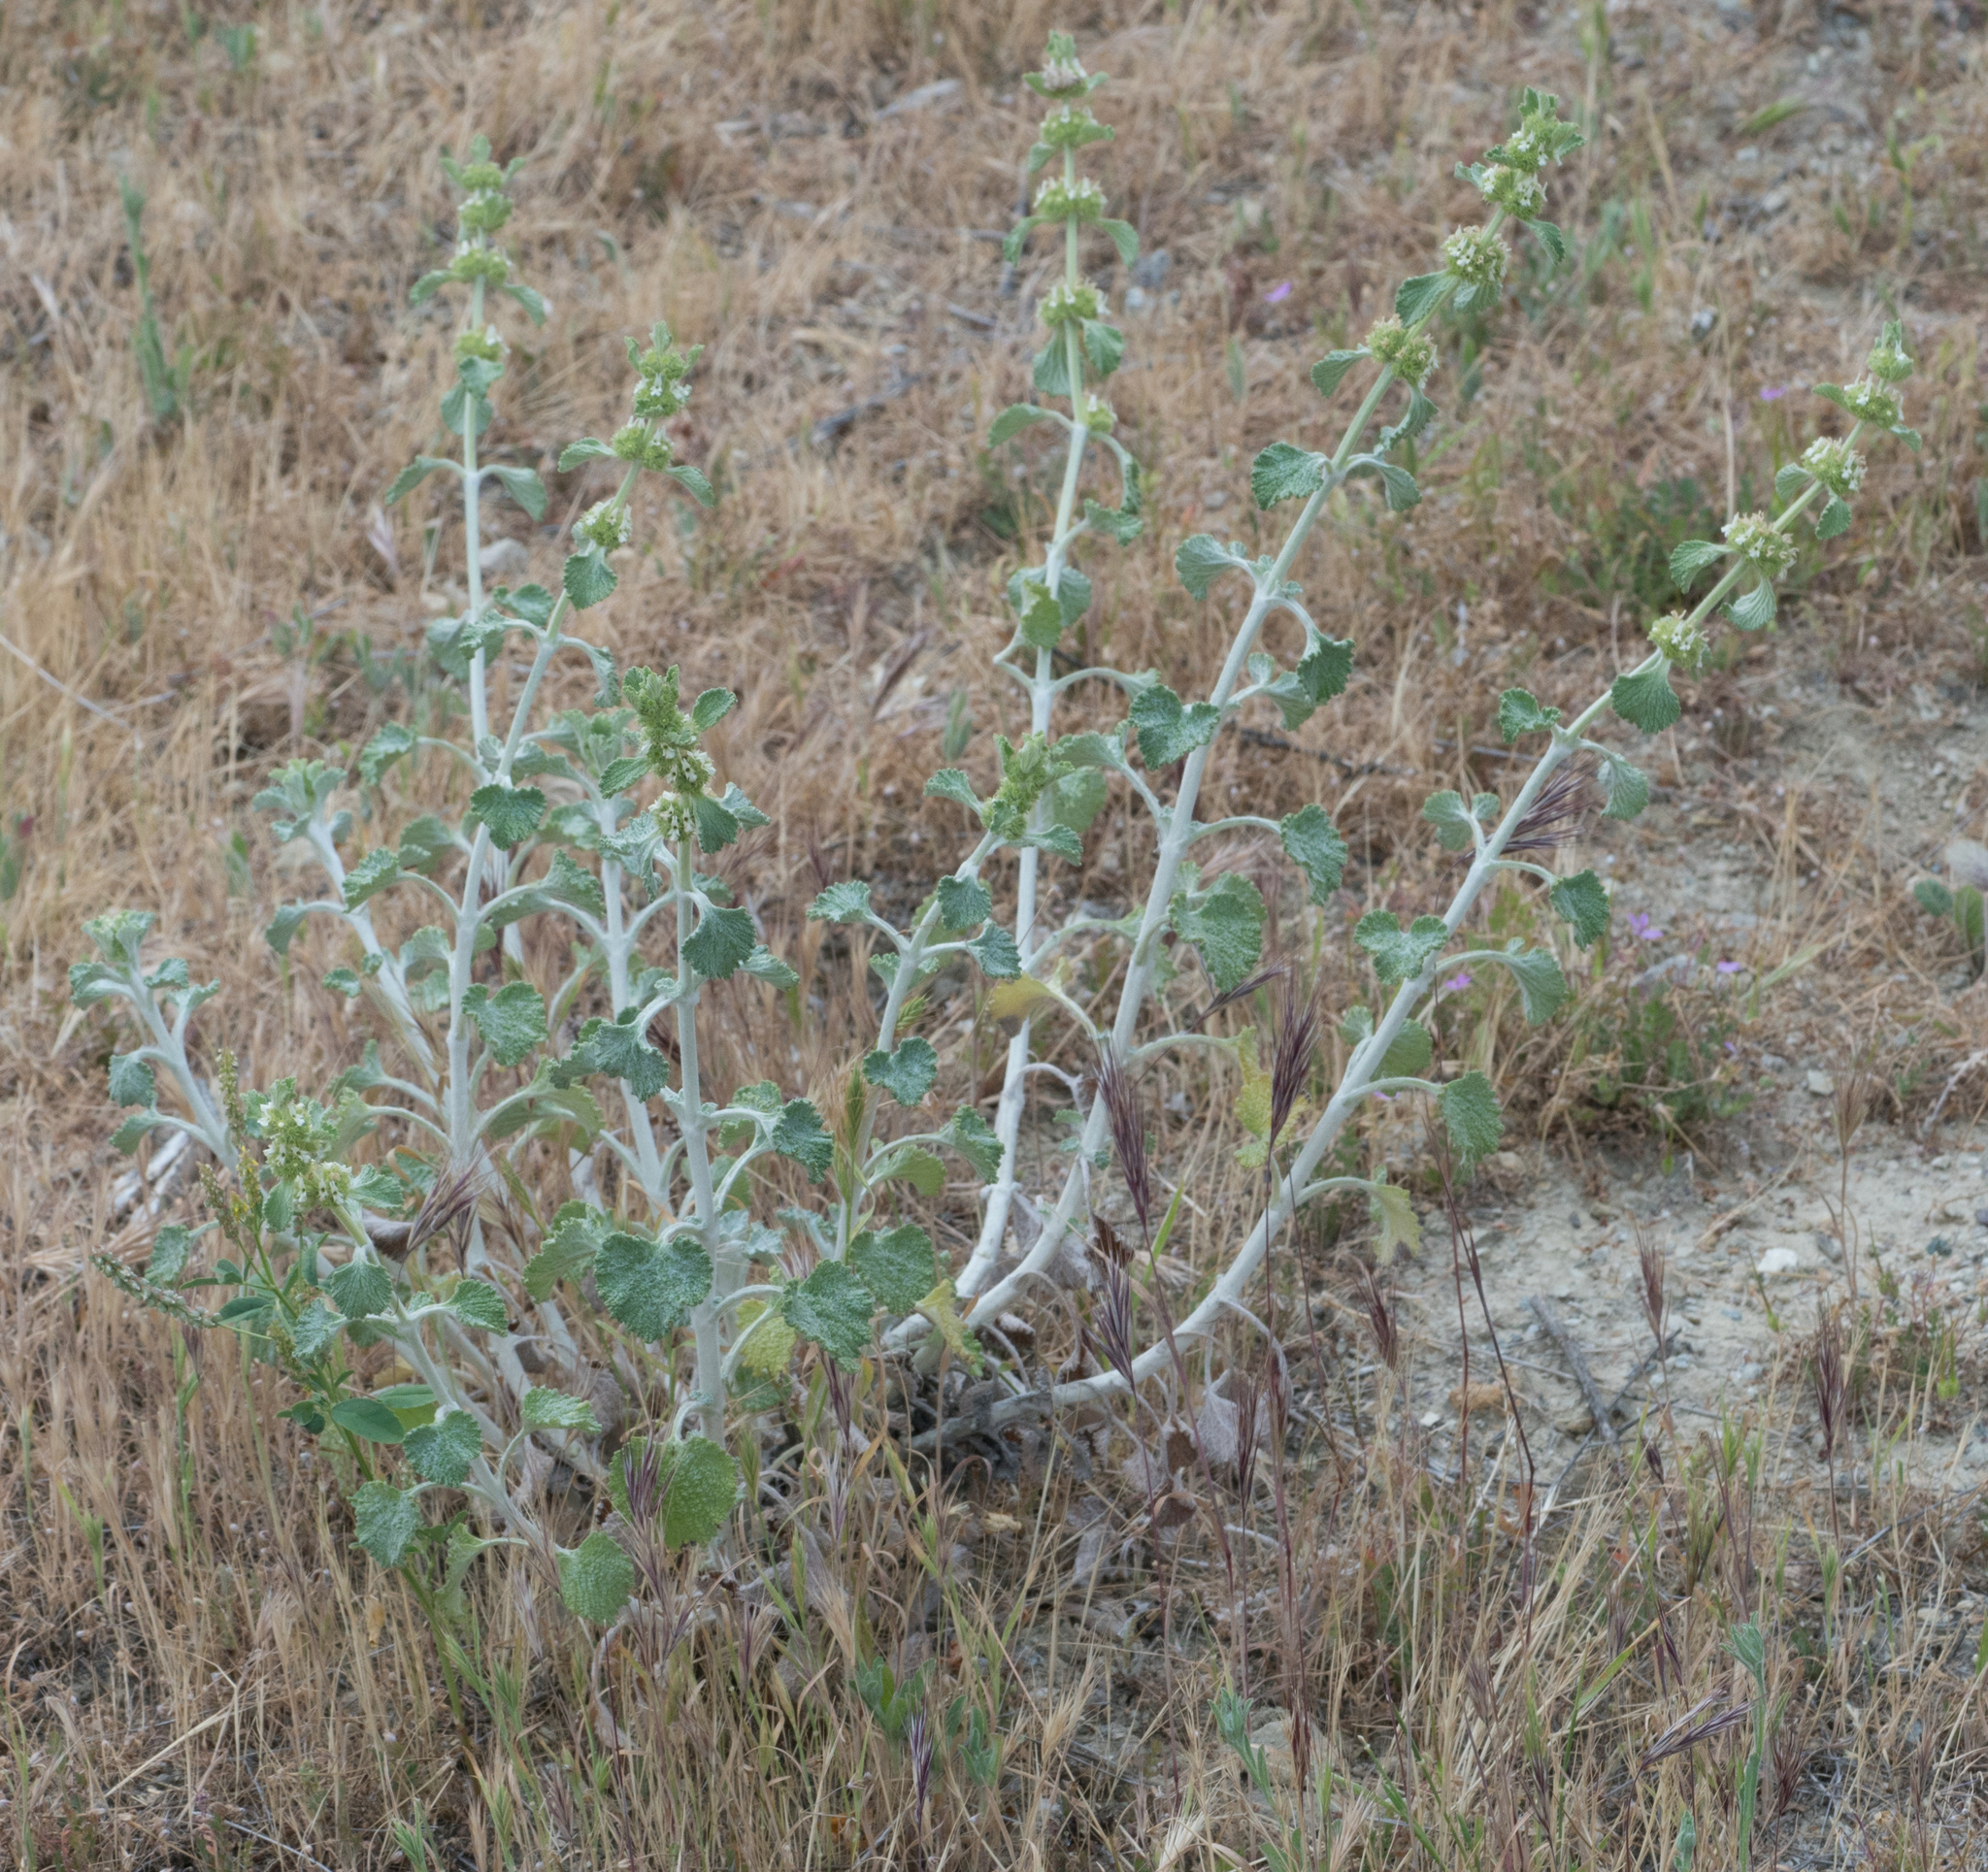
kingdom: Plantae
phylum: Tracheophyta
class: Magnoliopsida
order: Lamiales
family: Lamiaceae
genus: Marrubium
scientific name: Marrubium vulgare
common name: Horehound
